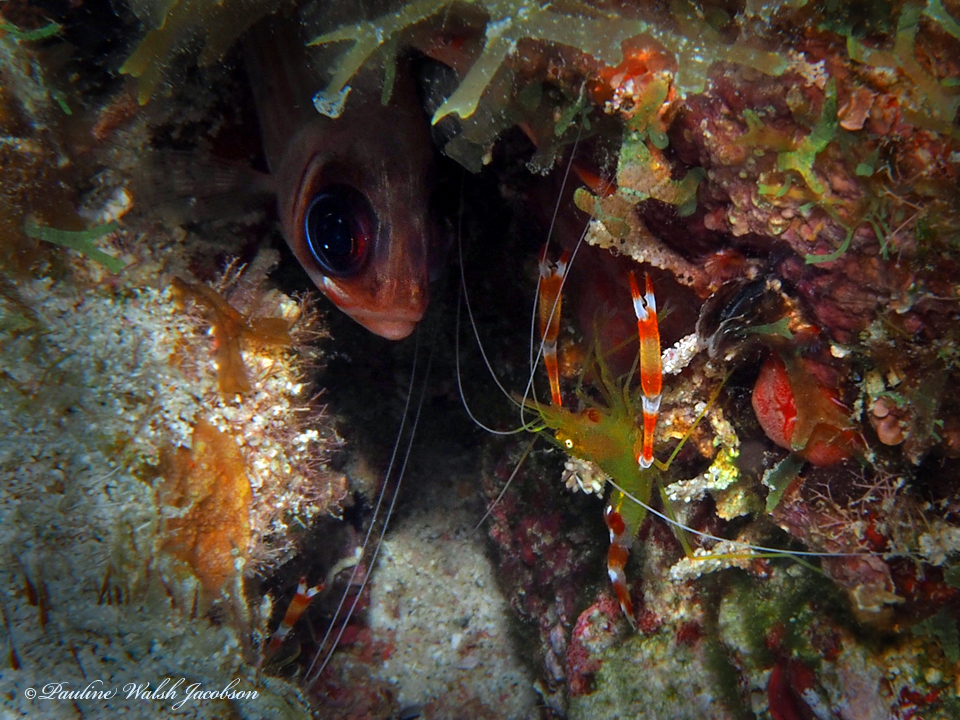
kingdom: Animalia
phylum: Arthropoda
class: Malacostraca
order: Decapoda
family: Stenopodidae
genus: Stenopus
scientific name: Stenopus scutellatus
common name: Golden coral shrimp
